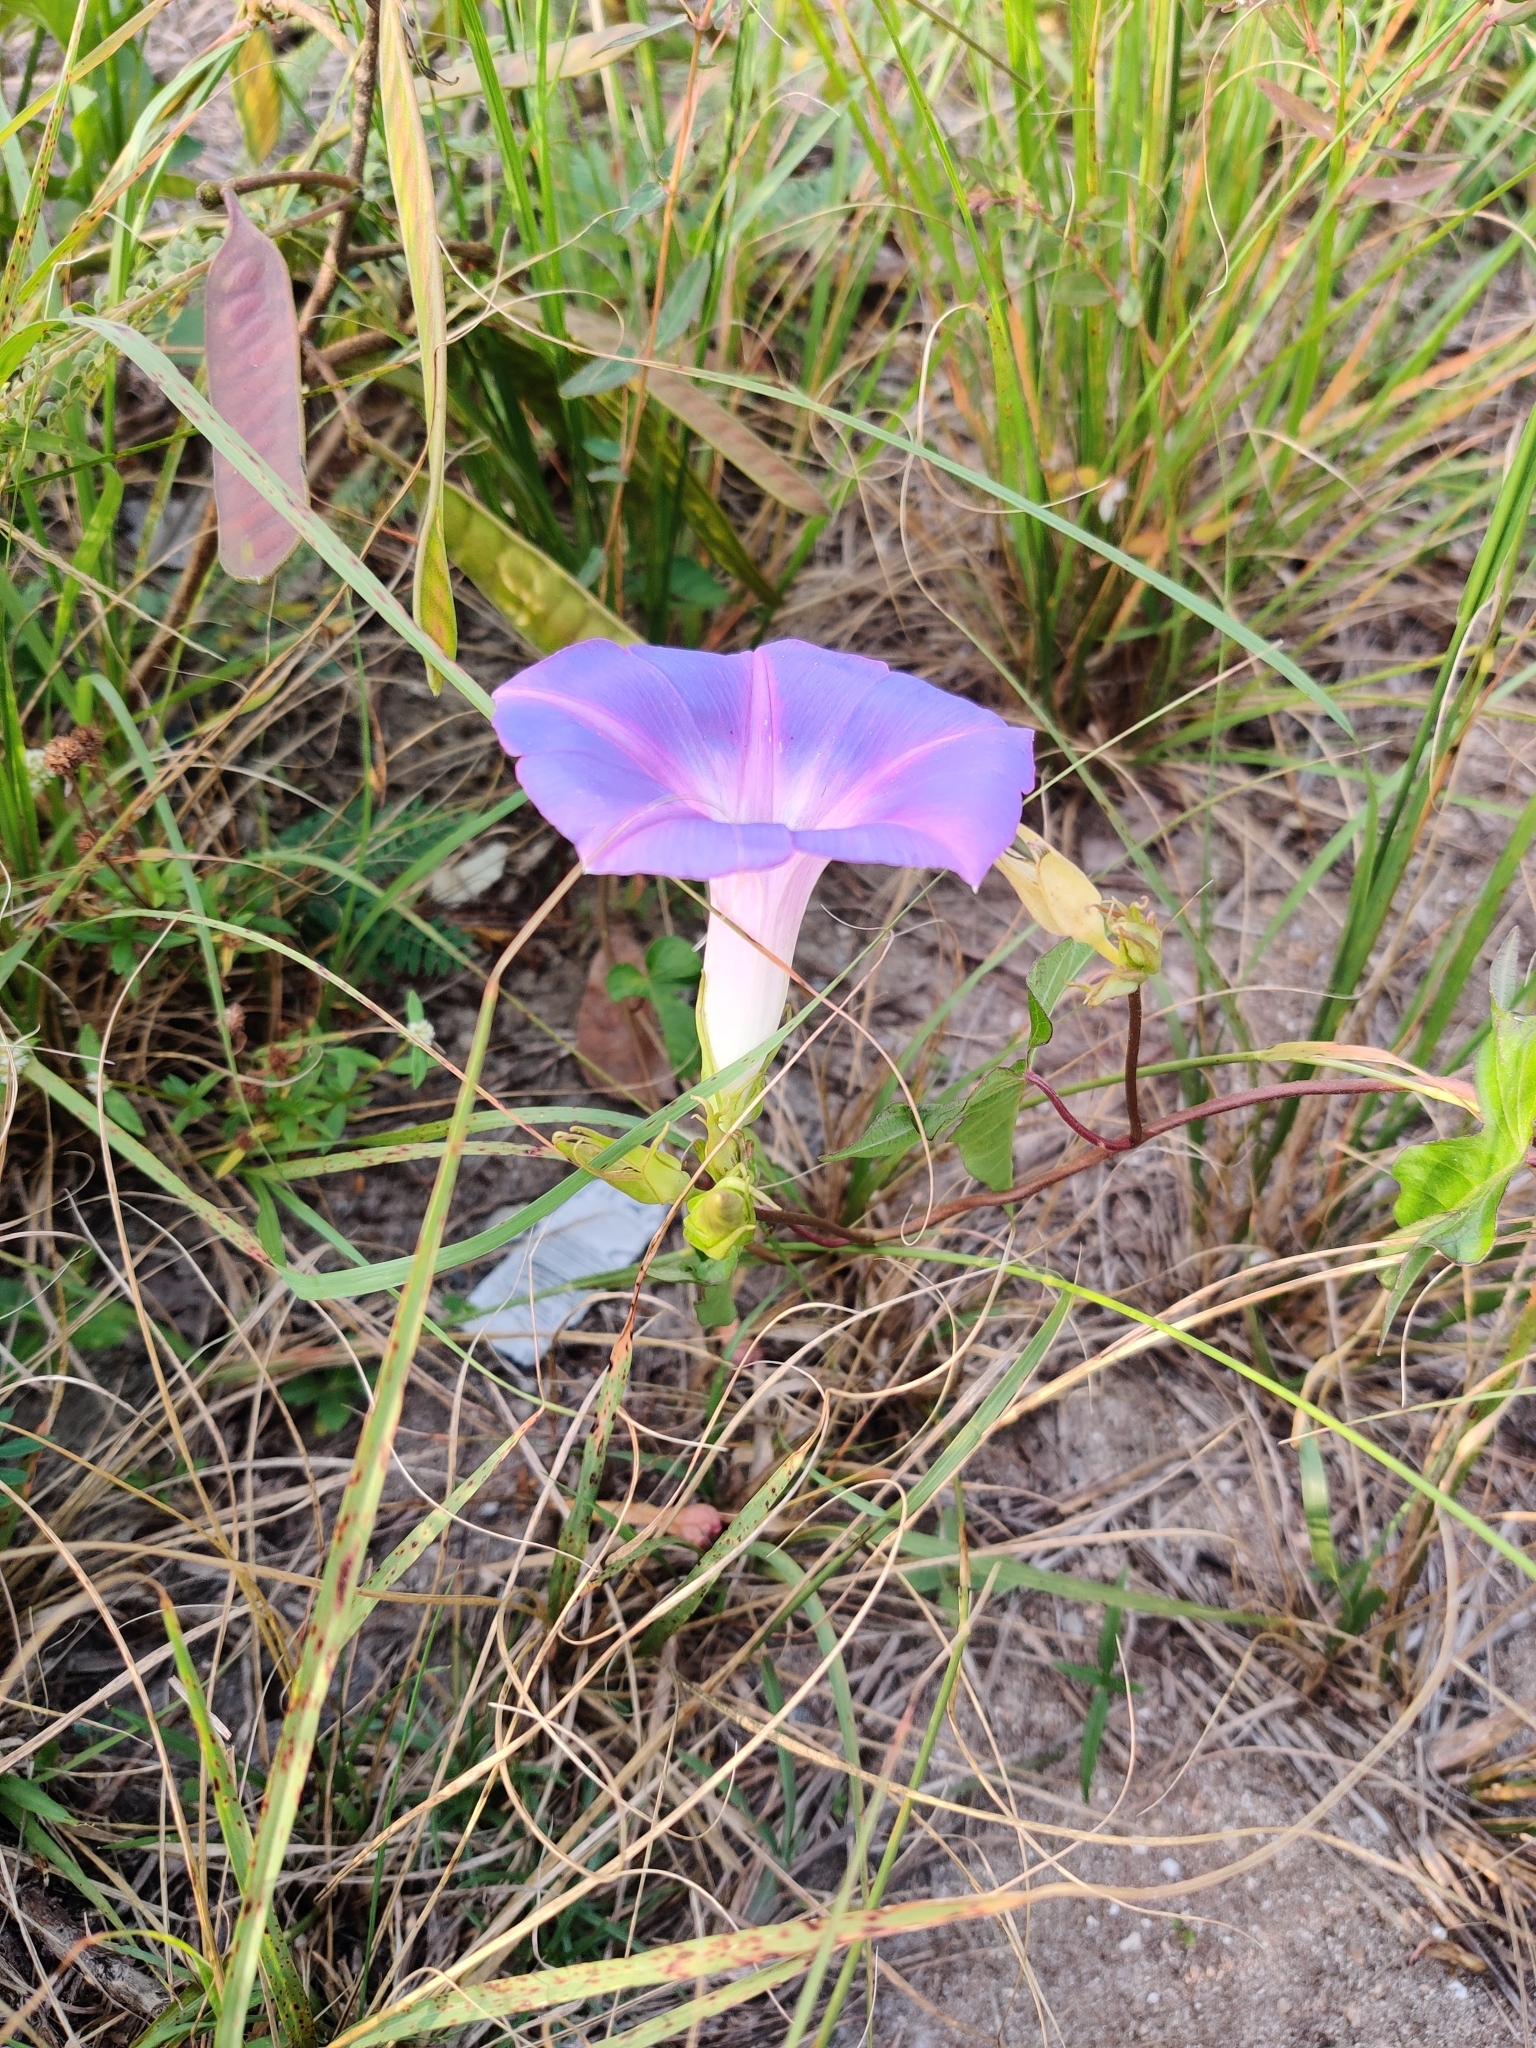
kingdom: Plantae
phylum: Tracheophyta
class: Magnoliopsida
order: Solanales
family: Convolvulaceae
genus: Ipomoea
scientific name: Ipomoea indica
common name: Blue dawnflower
